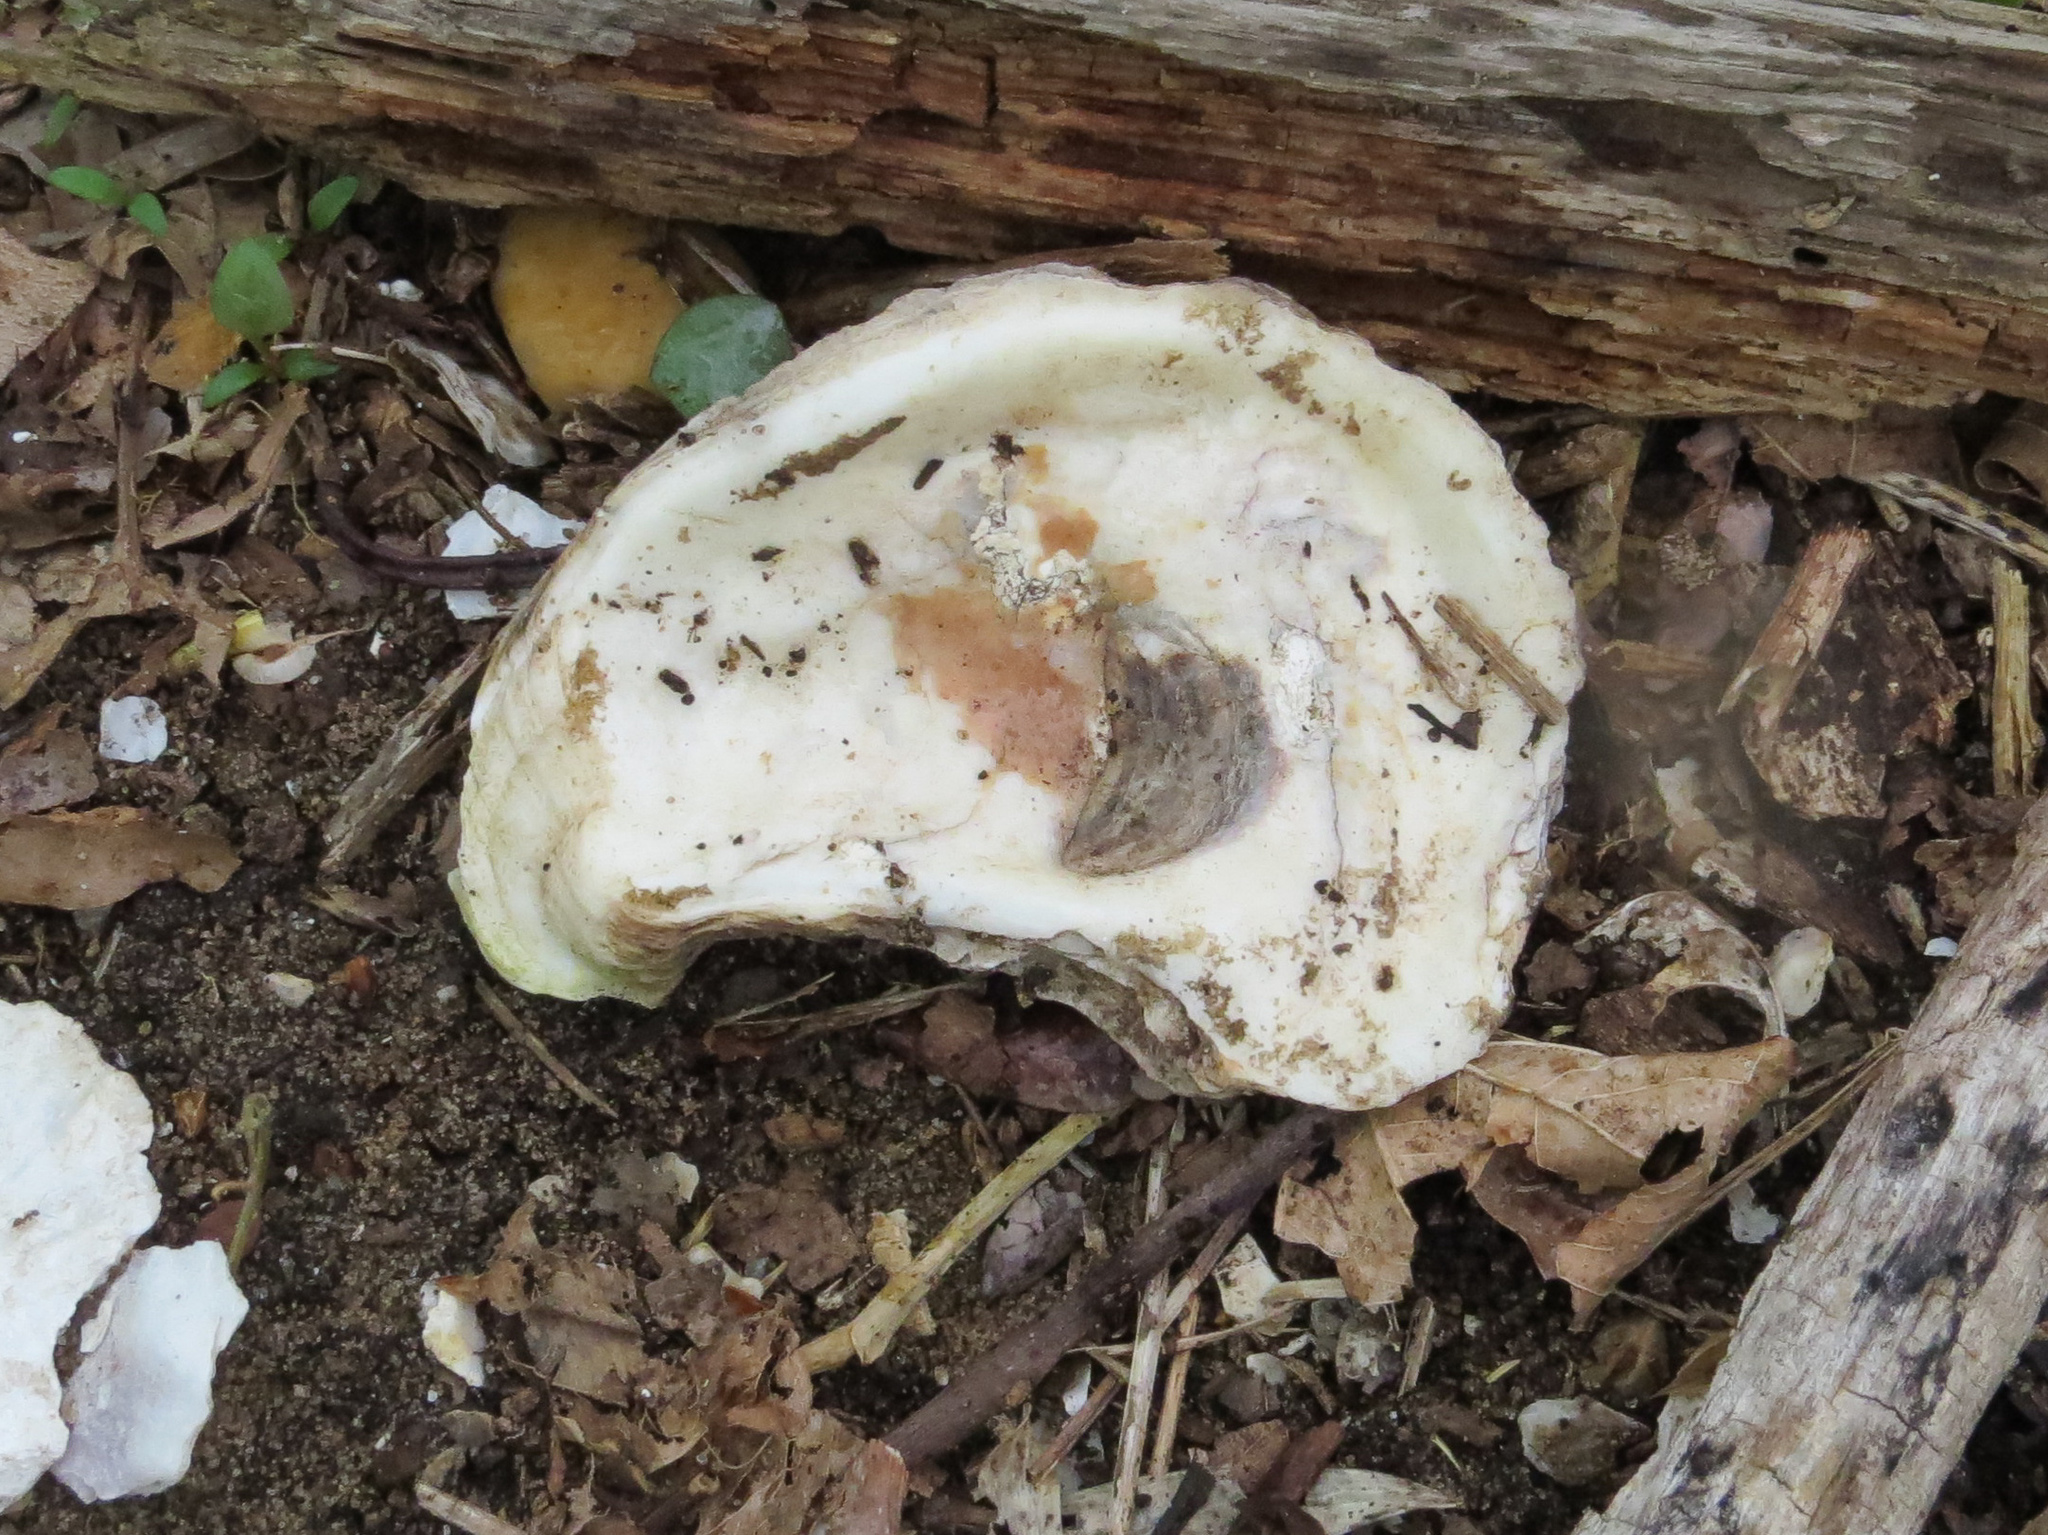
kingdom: Animalia
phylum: Mollusca
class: Bivalvia
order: Ostreida
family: Ostreidae
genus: Crassostrea
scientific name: Crassostrea virginica
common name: American oyster
